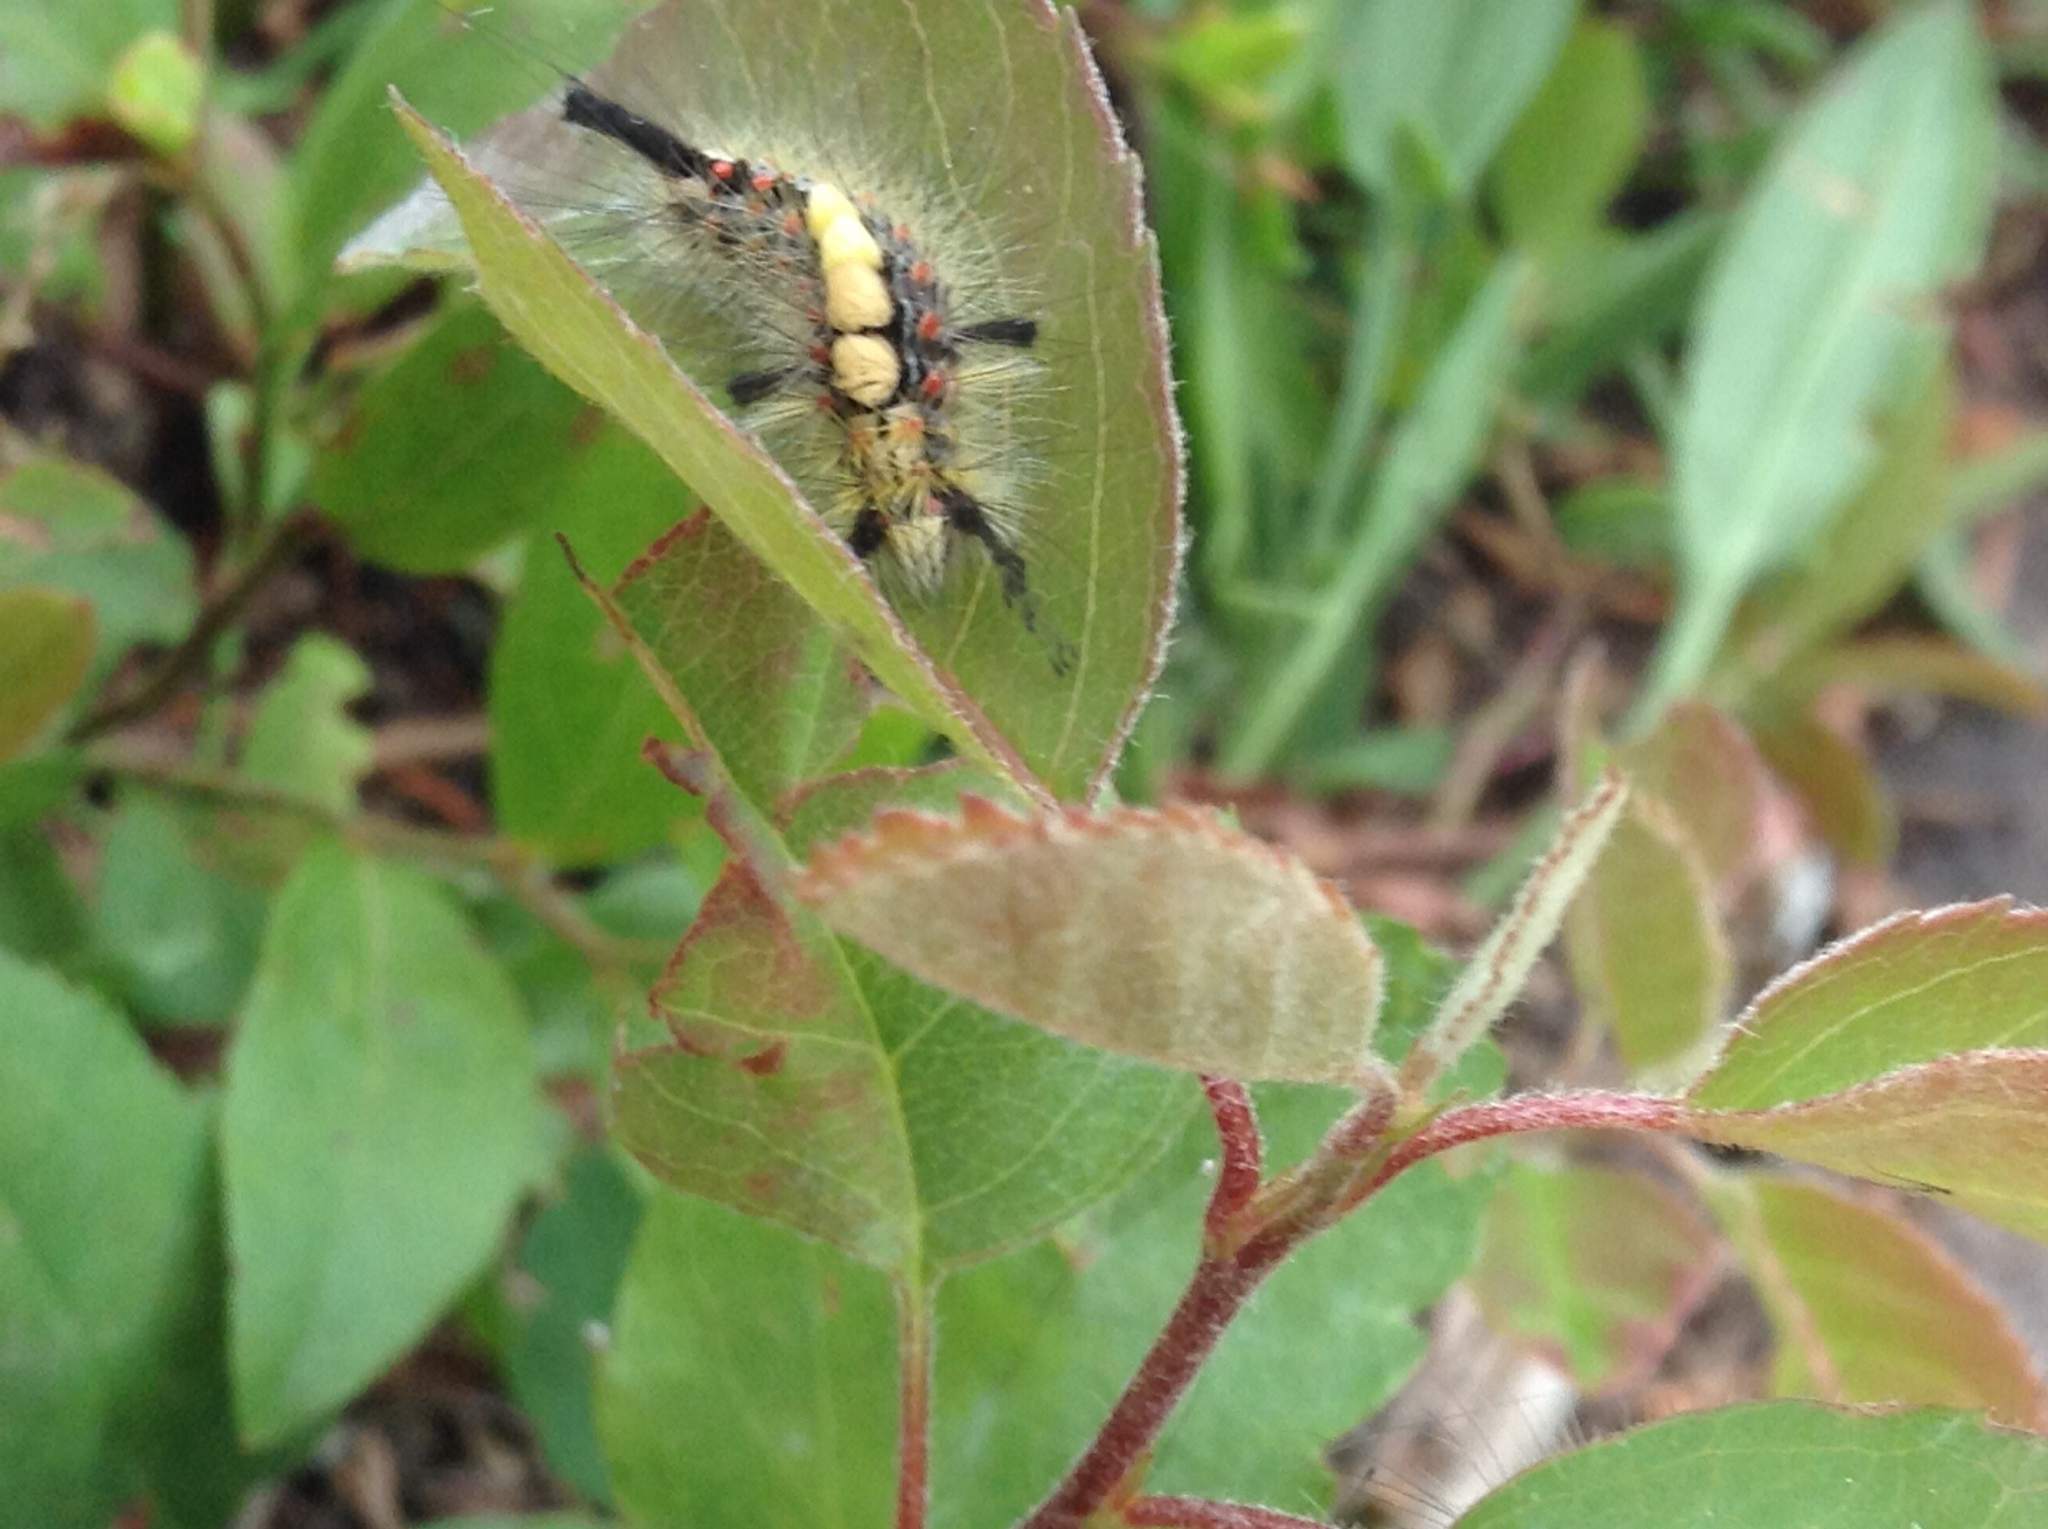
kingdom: Animalia
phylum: Arthropoda
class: Insecta
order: Lepidoptera
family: Erebidae
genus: Orgyia
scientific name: Orgyia antiqua
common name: Vapourer
